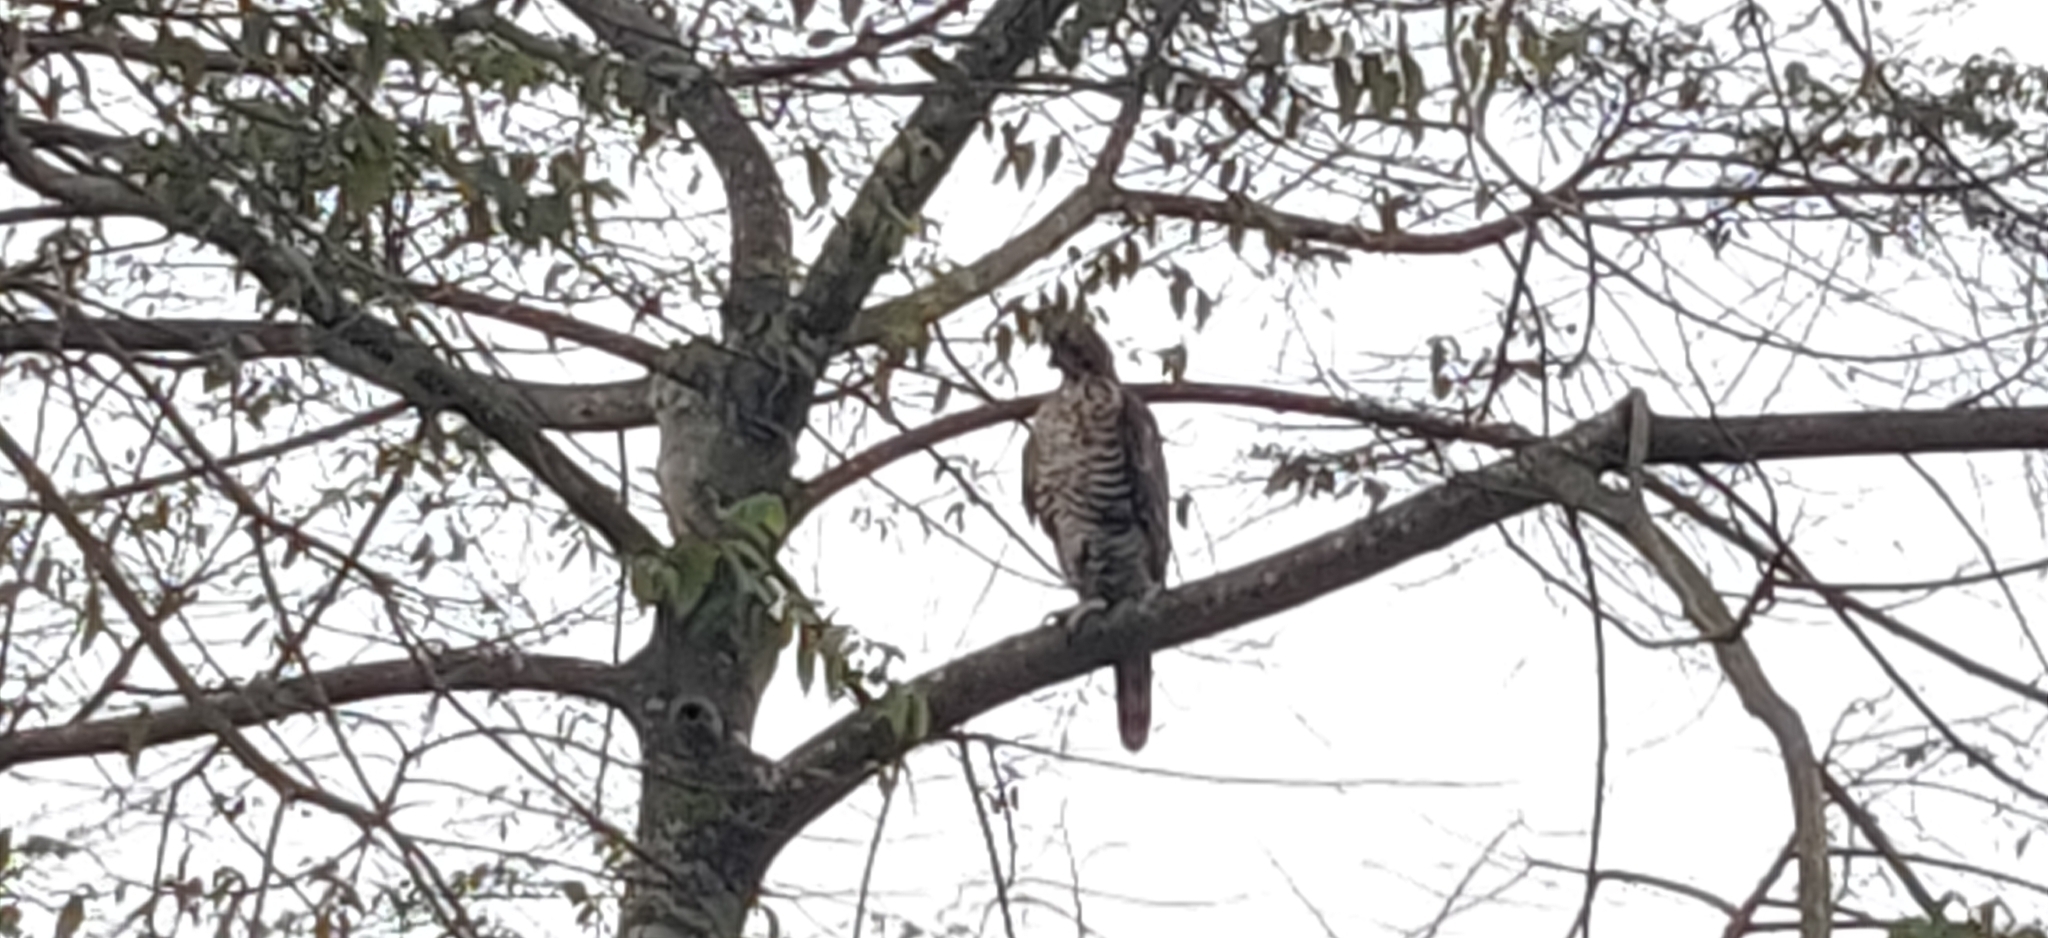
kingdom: Animalia
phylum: Chordata
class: Aves
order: Accipitriformes
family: Accipitridae
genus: Nisaetus
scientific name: Nisaetus kelaarti
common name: Legge's hawk-eagle
